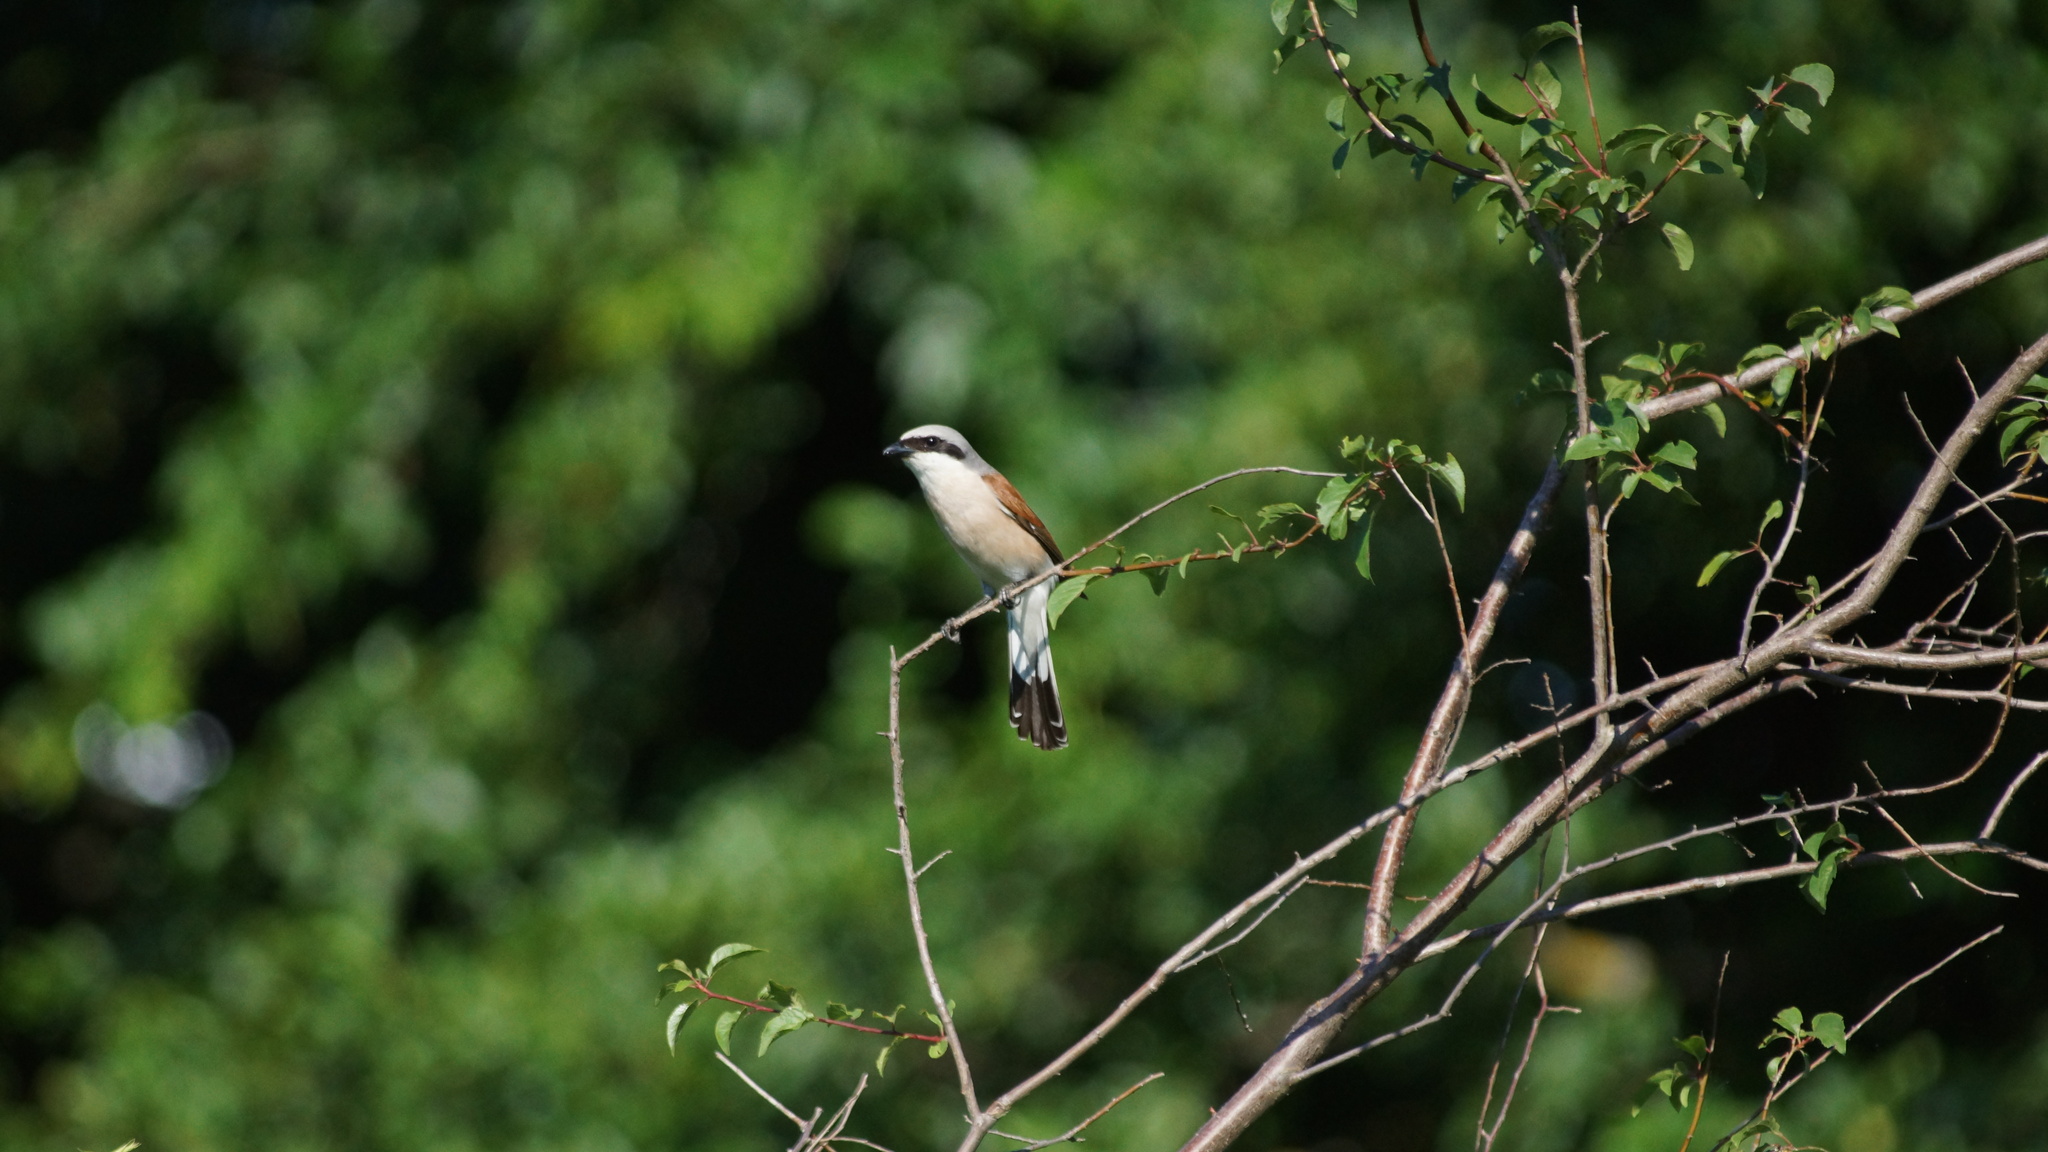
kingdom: Animalia
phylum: Chordata
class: Aves
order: Passeriformes
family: Laniidae
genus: Lanius
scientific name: Lanius collurio
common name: Red-backed shrike
